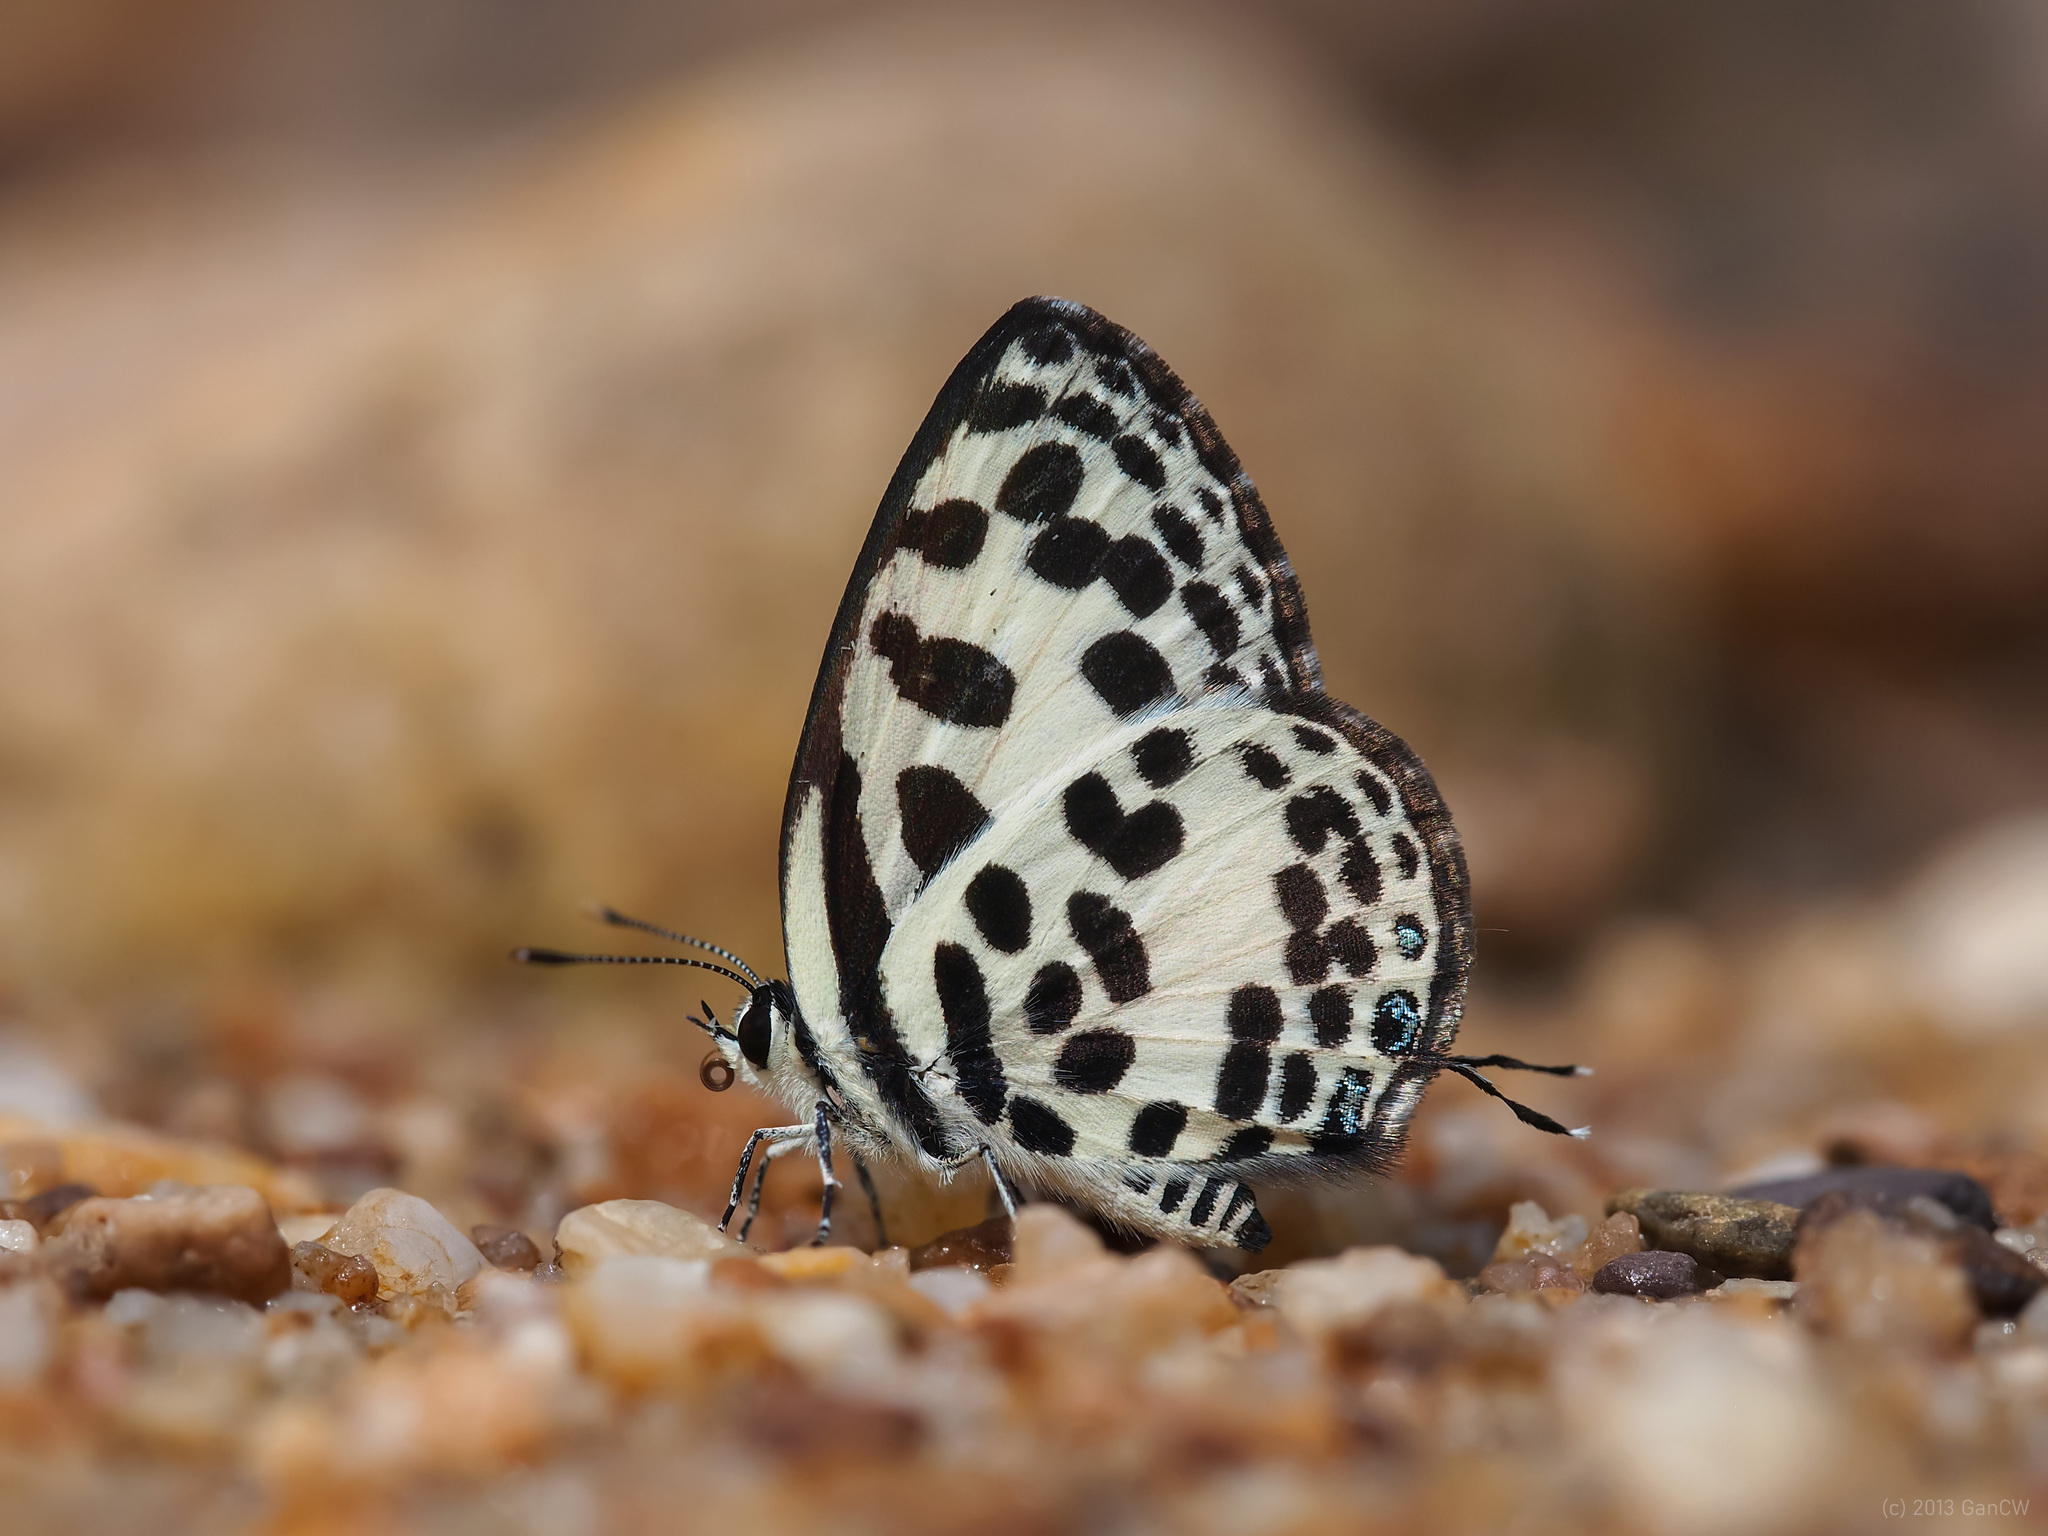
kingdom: Animalia
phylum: Arthropoda
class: Insecta
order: Lepidoptera
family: Lycaenidae
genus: Castalius
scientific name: Castalius rosimon
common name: Common pierrot
